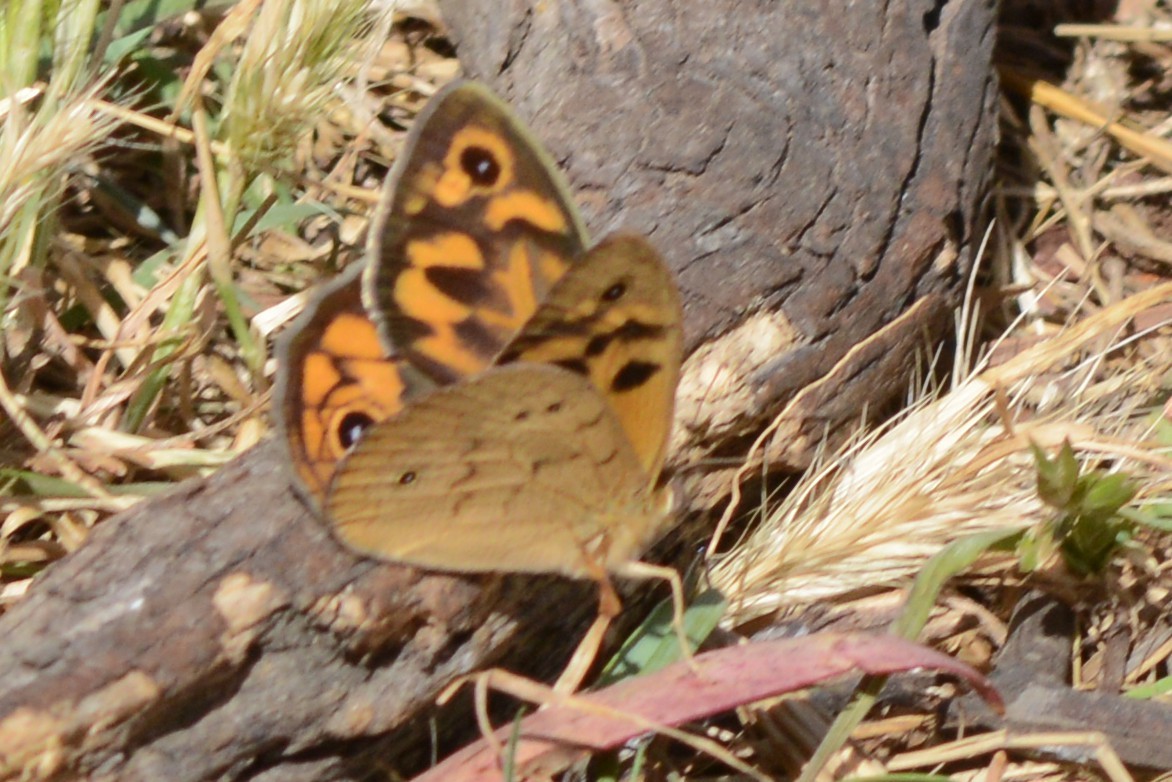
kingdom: Animalia
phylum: Arthropoda
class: Insecta
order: Lepidoptera
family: Nymphalidae
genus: Heteronympha
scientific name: Heteronympha merope
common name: Common brown
